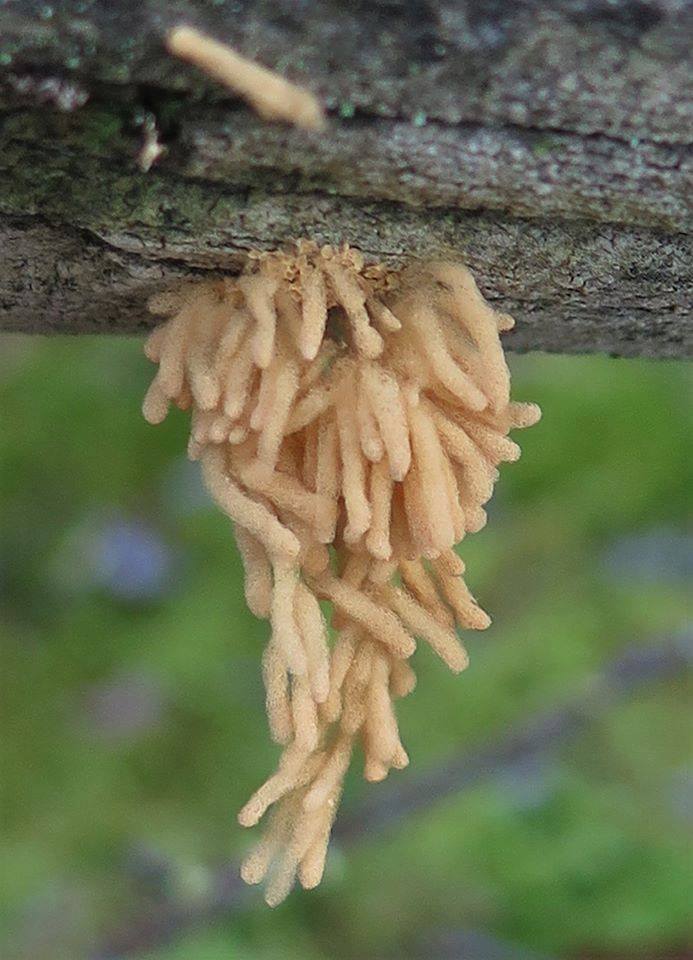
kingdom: Protozoa
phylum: Mycetozoa
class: Myxomycetes
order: Trichiales
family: Arcyriaceae
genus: Arcyria
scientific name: Arcyria obvelata
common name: Yellow carnival candy slime
